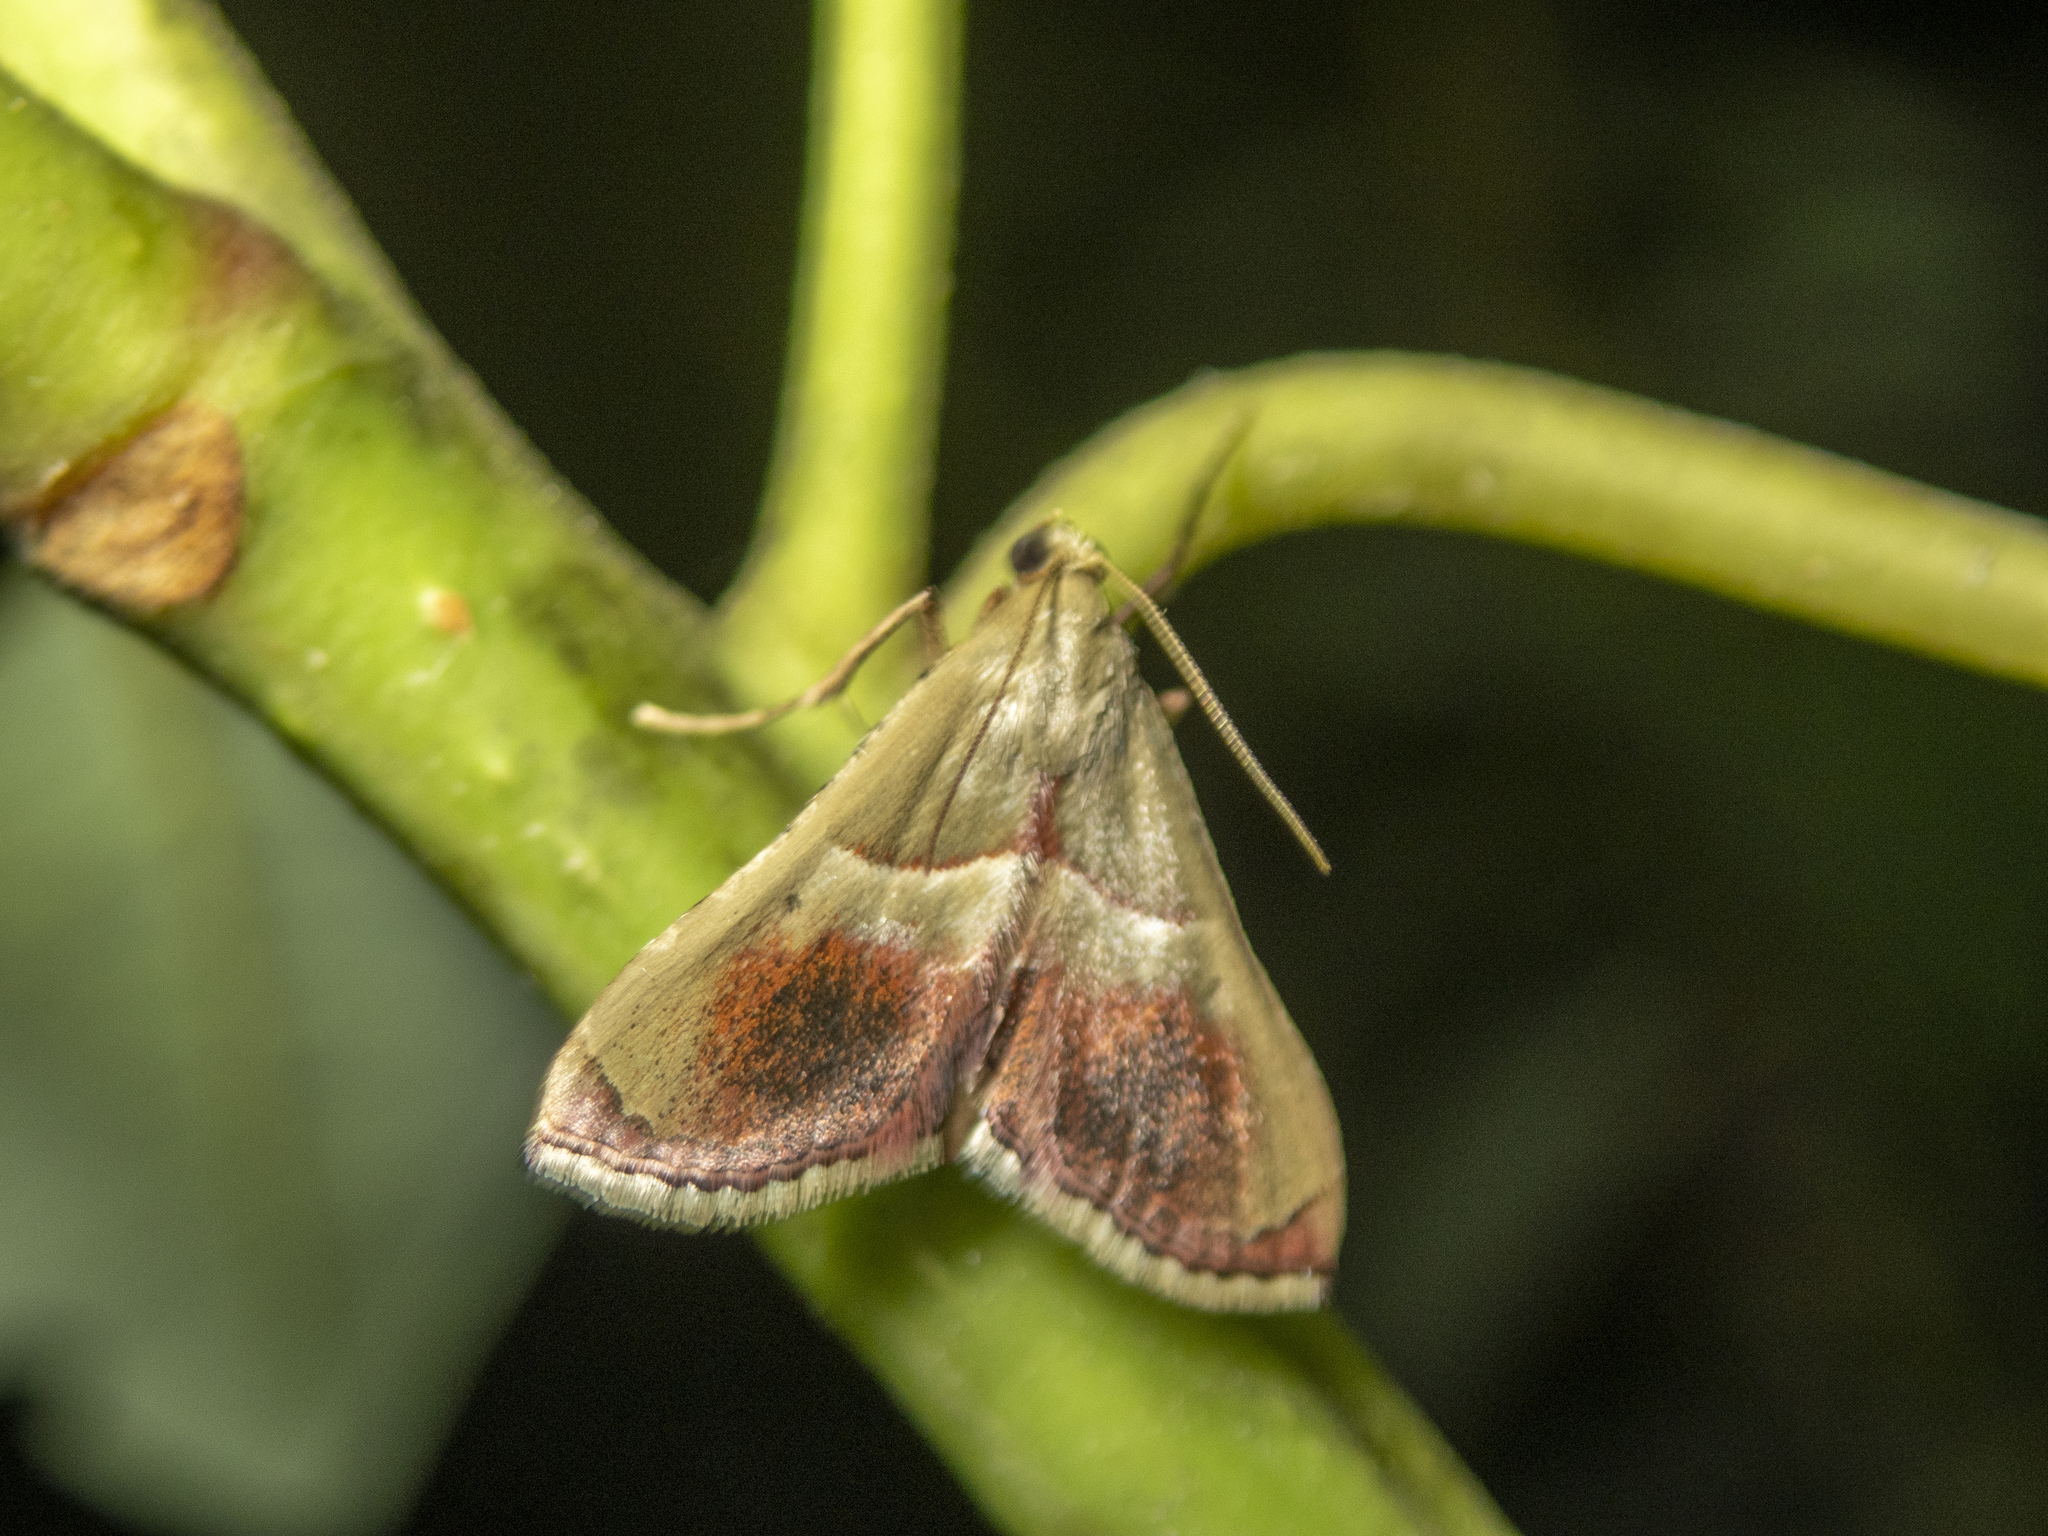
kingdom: Animalia
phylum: Arthropoda
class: Insecta
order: Lepidoptera
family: Pyralidae
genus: Endotricha
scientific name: Endotricha repandalis
